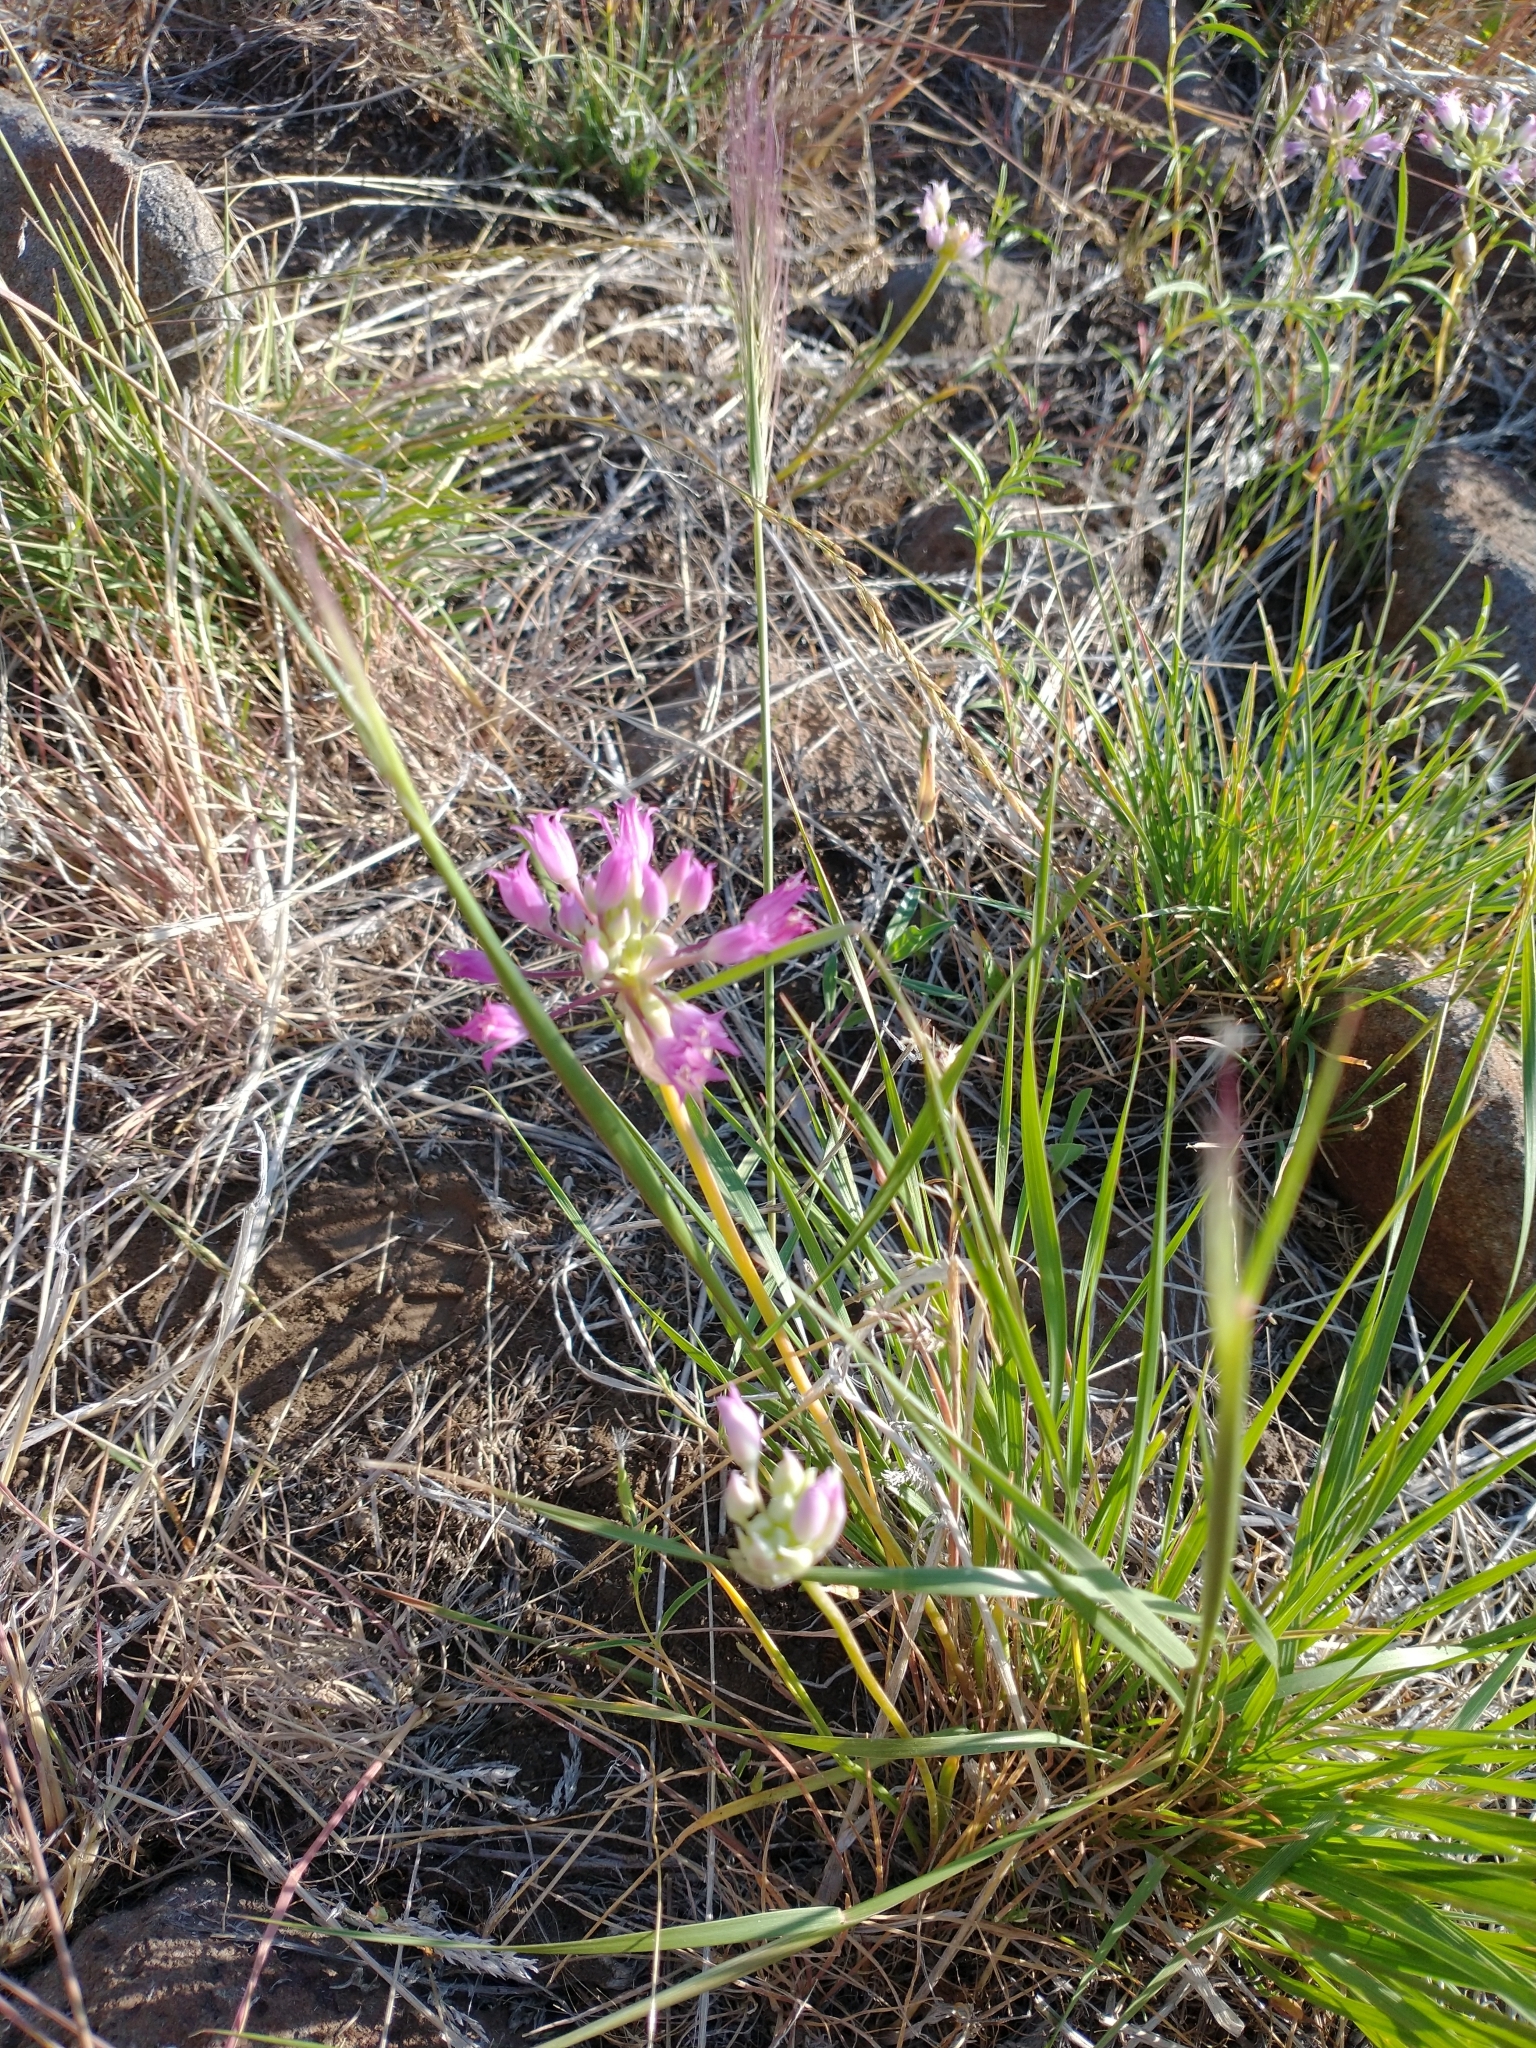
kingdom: Plantae
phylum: Tracheophyta
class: Liliopsida
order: Asparagales
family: Amaryllidaceae
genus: Allium
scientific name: Allium acuminatum
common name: Hooker's onion
